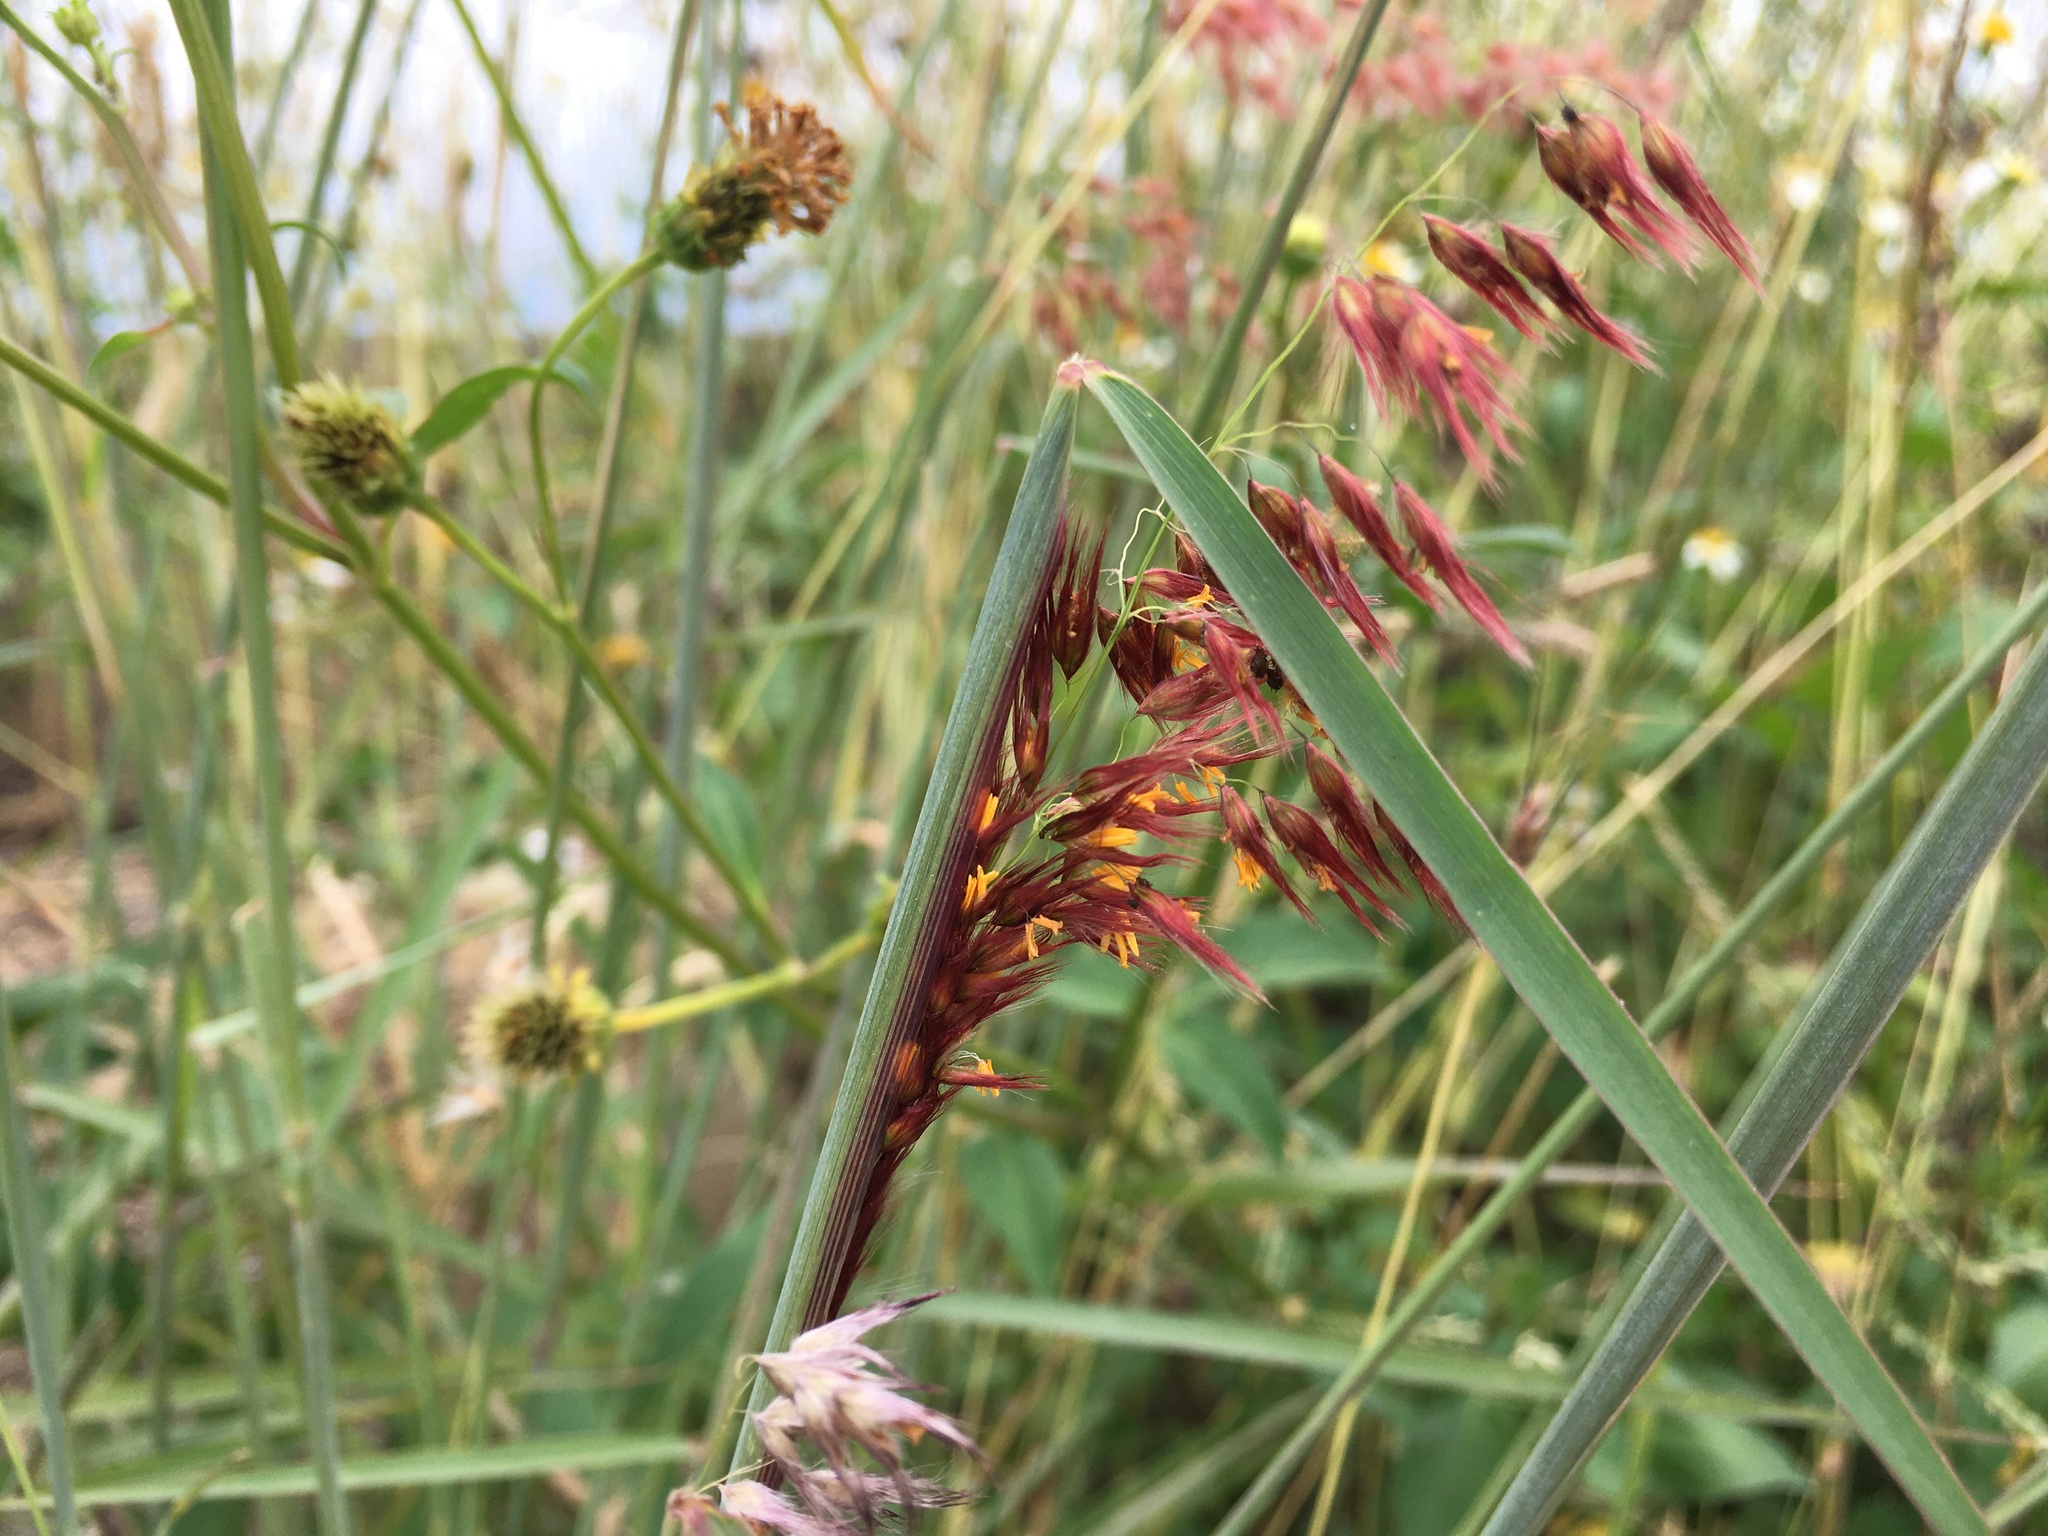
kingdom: Plantae
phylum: Tracheophyta
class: Liliopsida
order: Poales
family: Poaceae
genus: Melinis
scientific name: Melinis repens
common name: Rose natal grass
